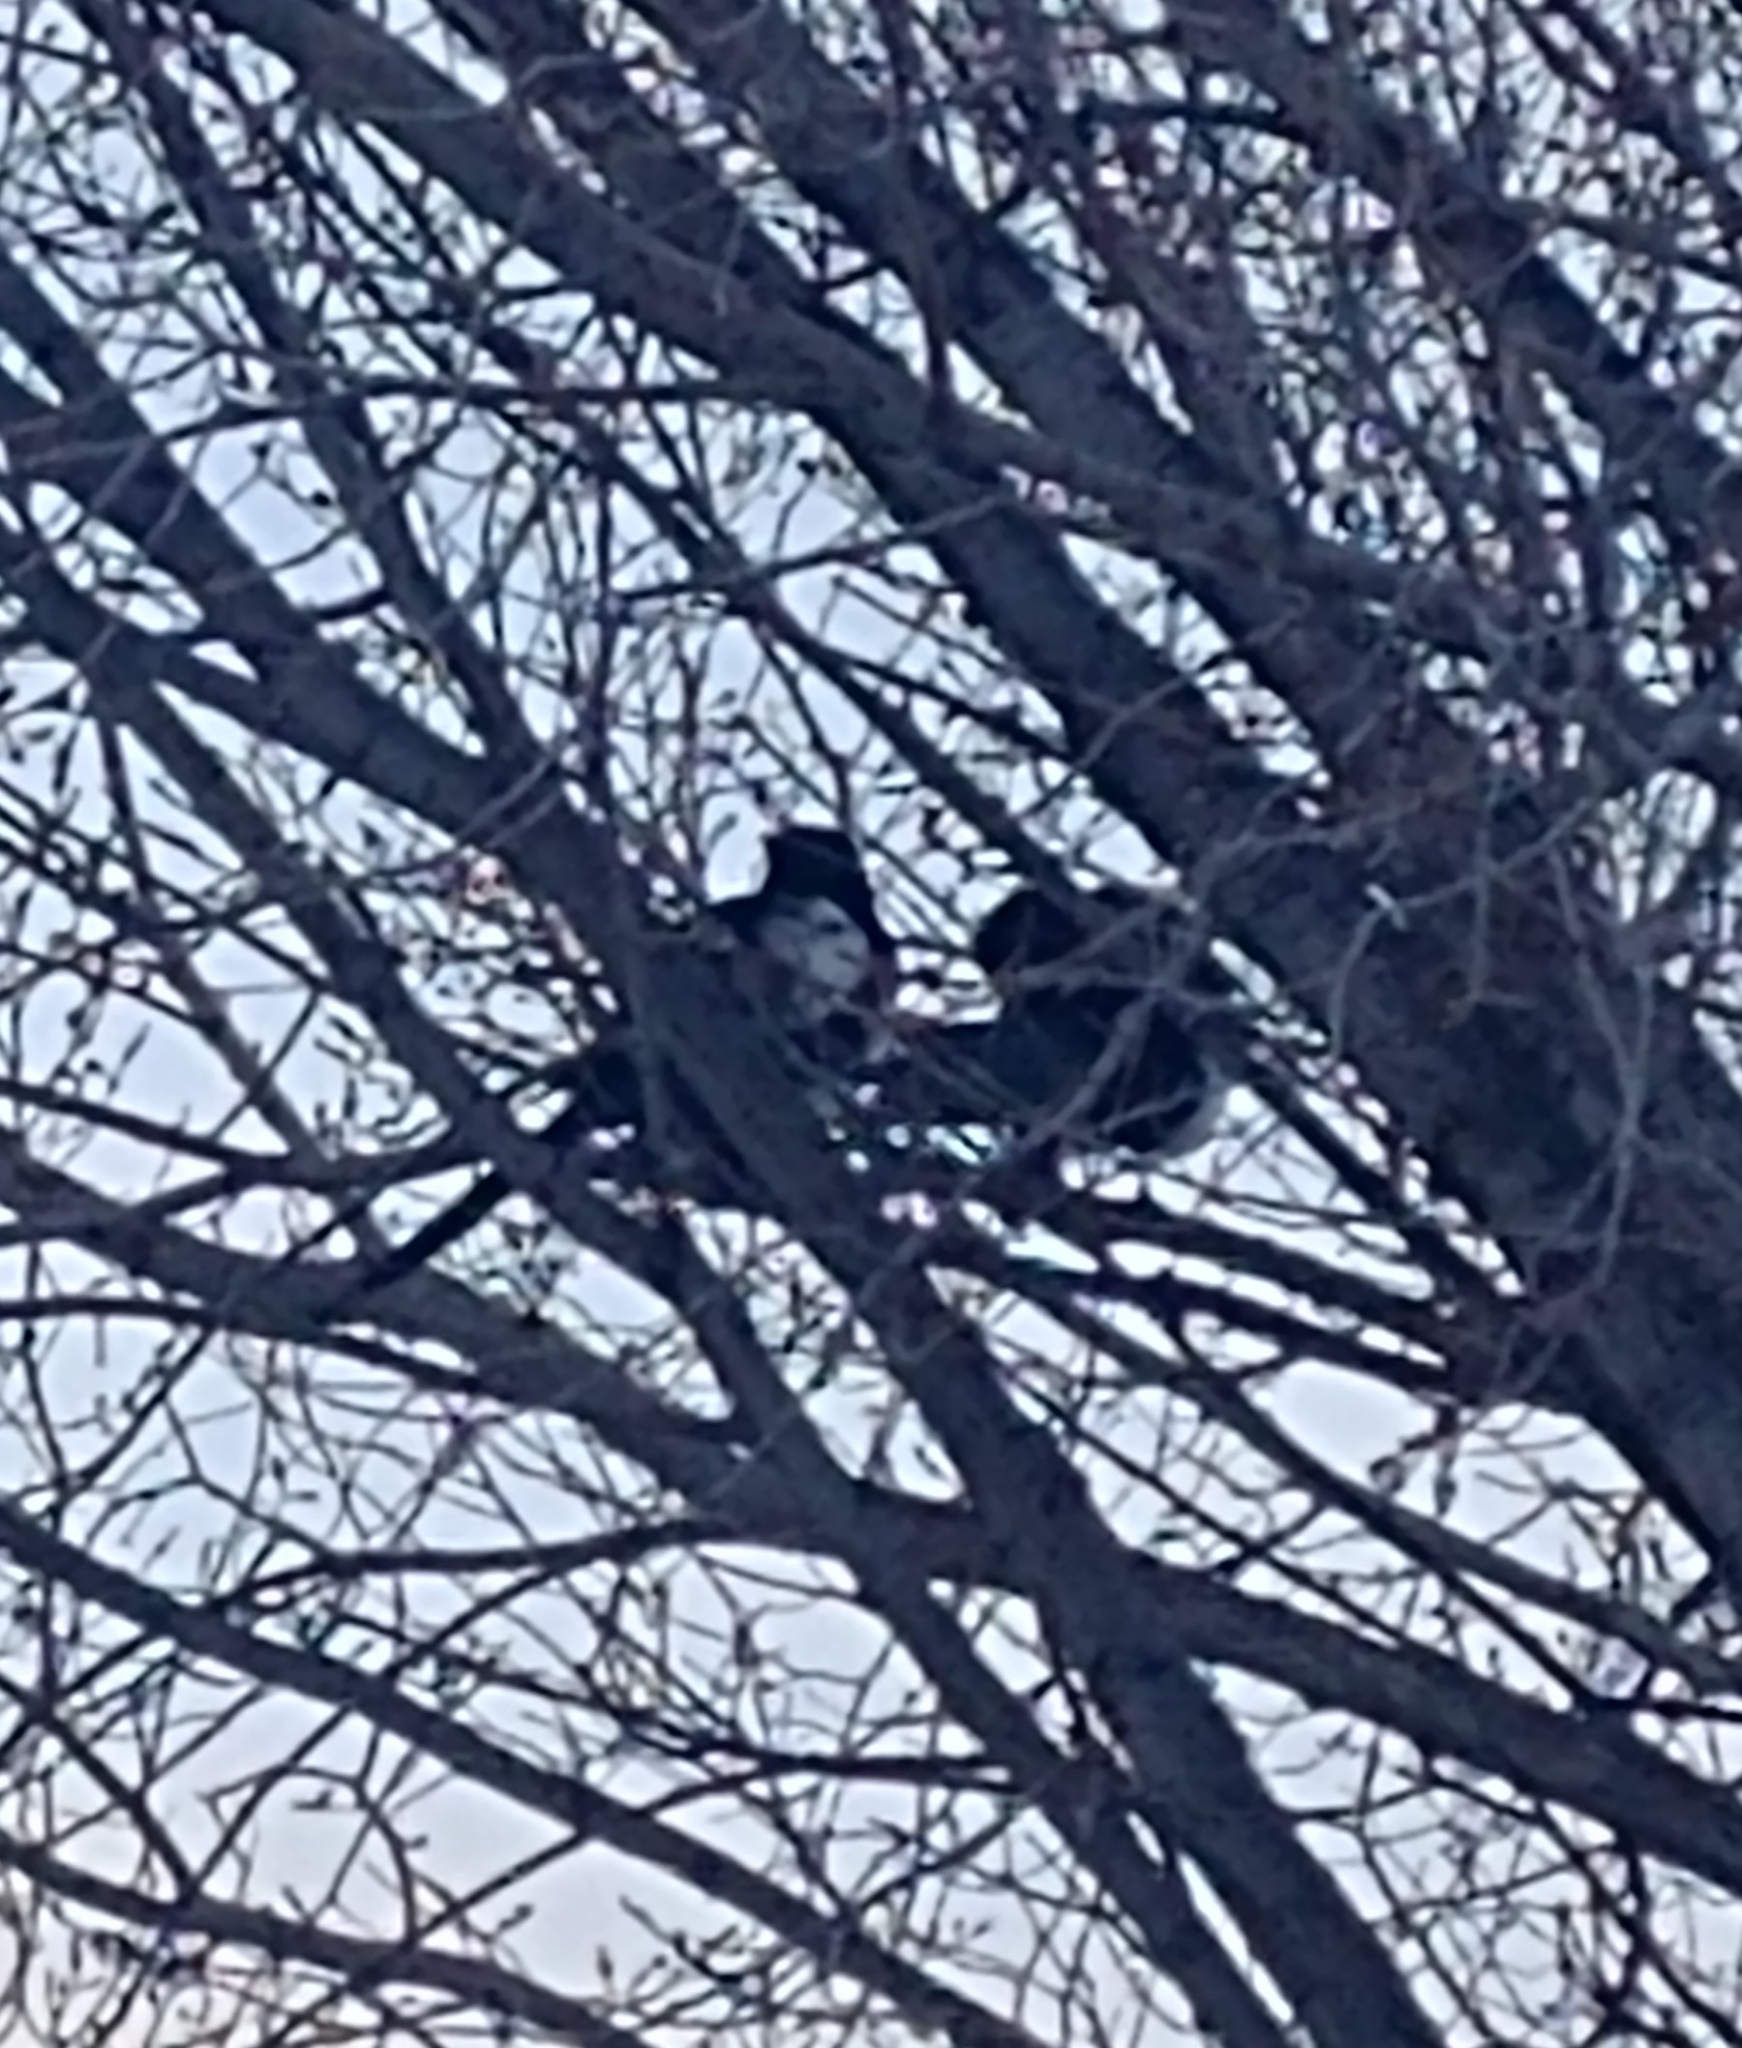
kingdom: Animalia
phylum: Chordata
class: Aves
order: Passeriformes
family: Corvidae
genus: Pica
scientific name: Pica hudsonia
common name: Black-billed magpie
